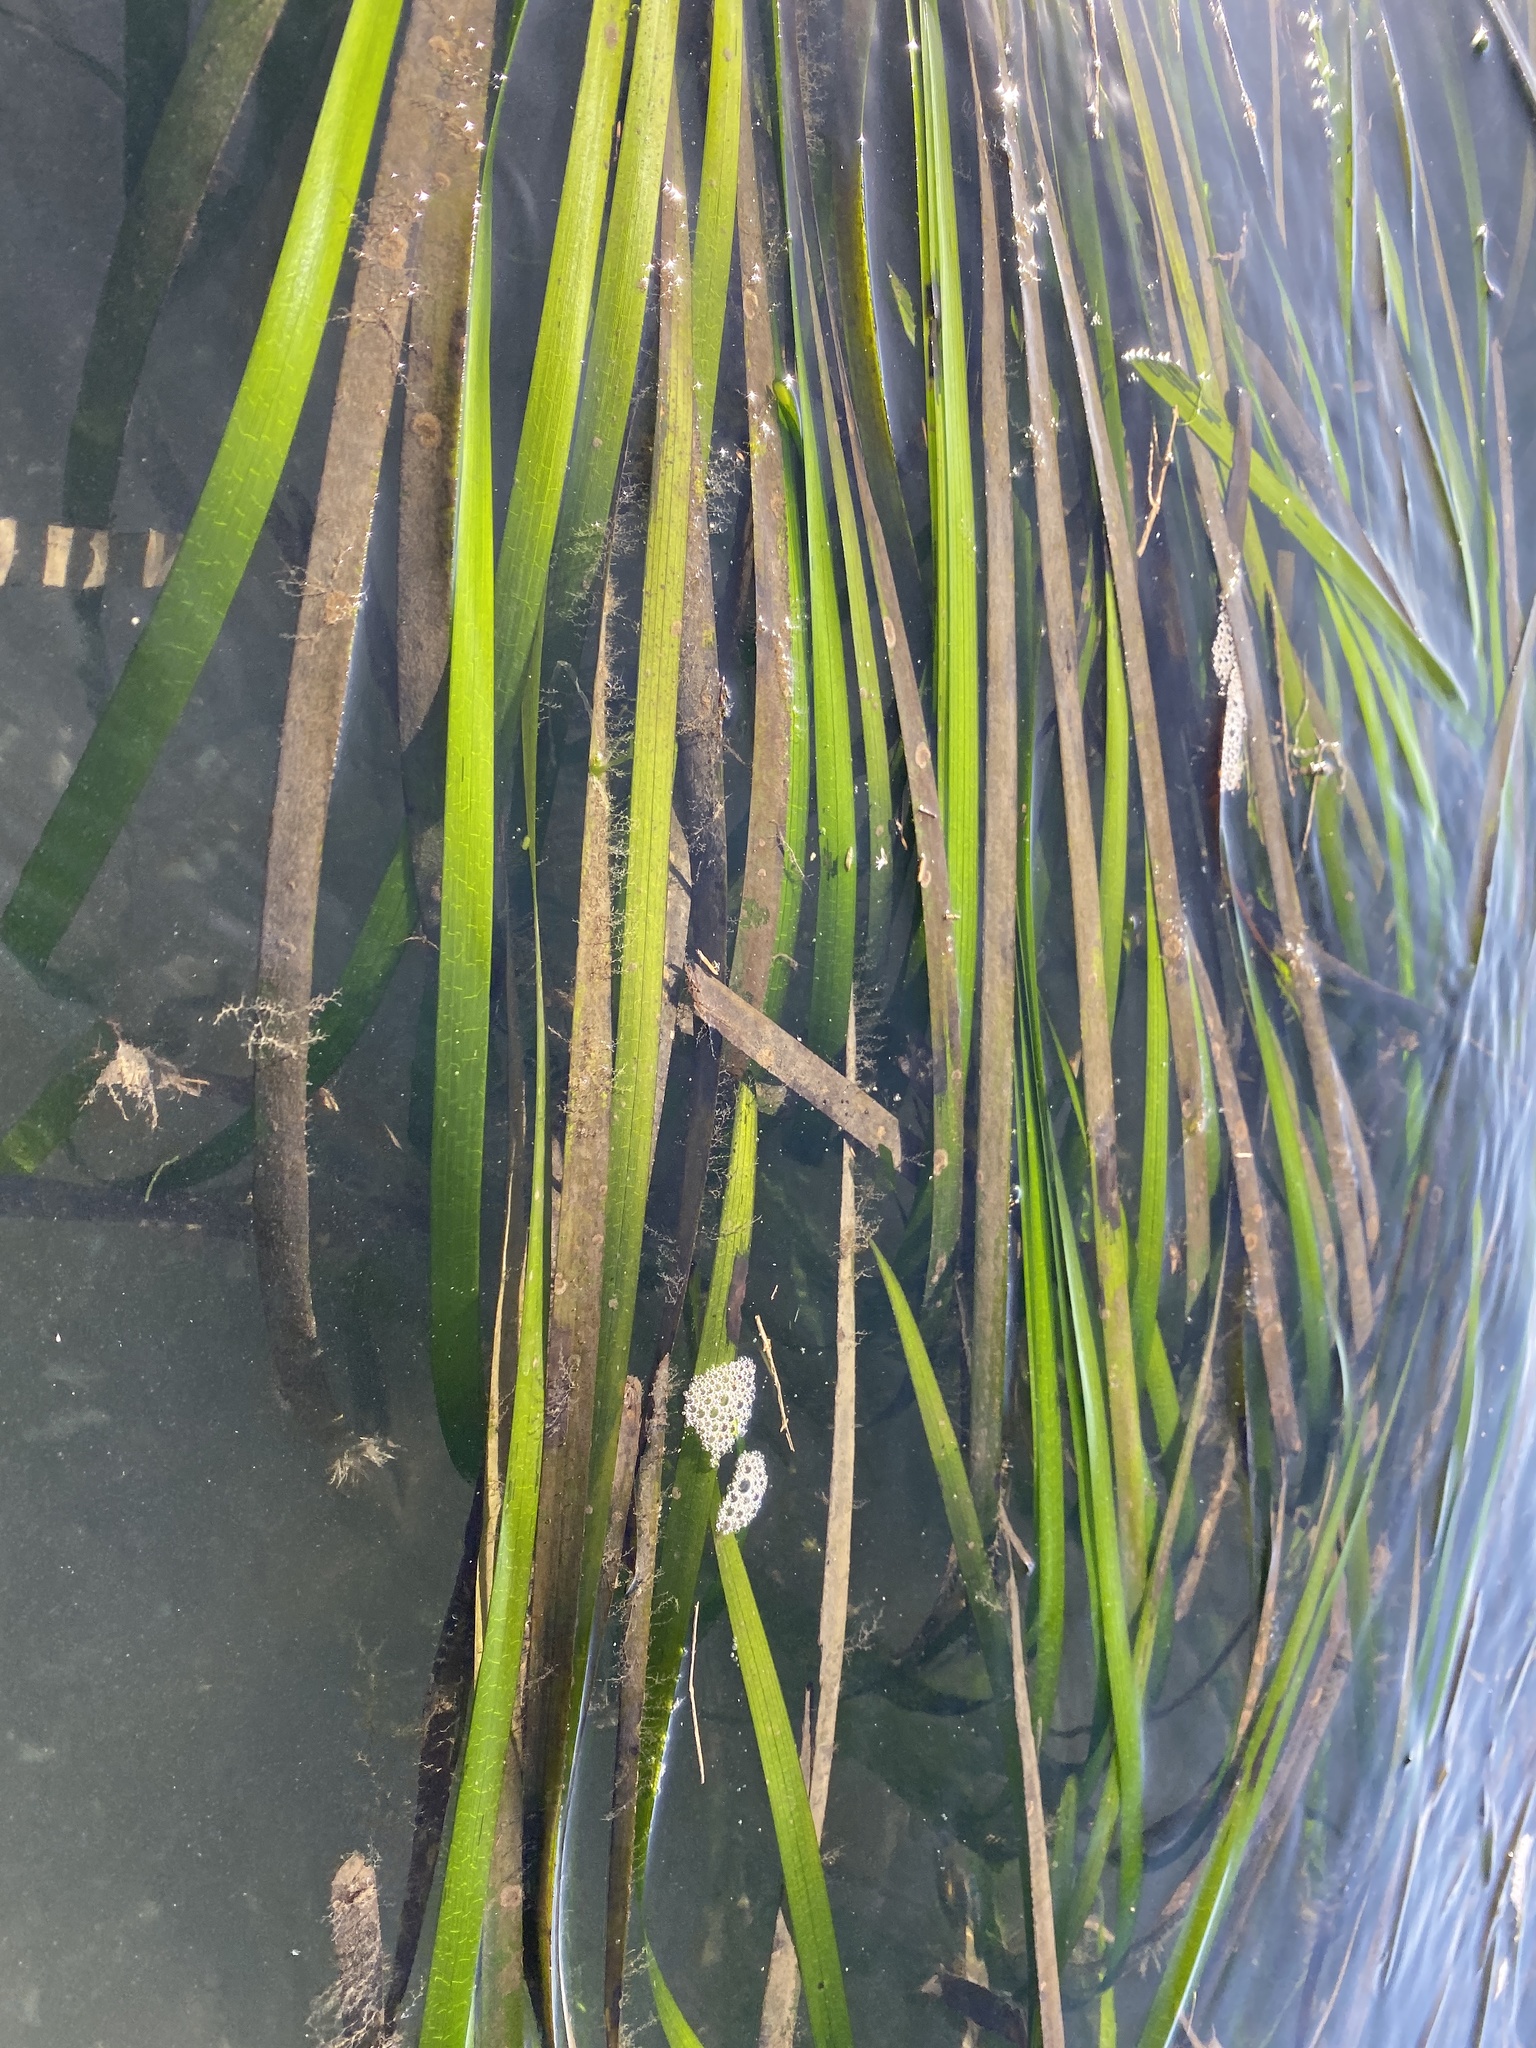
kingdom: Plantae
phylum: Tracheophyta
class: Liliopsida
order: Alismatales
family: Zosteraceae
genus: Zostera
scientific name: Zostera marina
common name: Eelgrass
